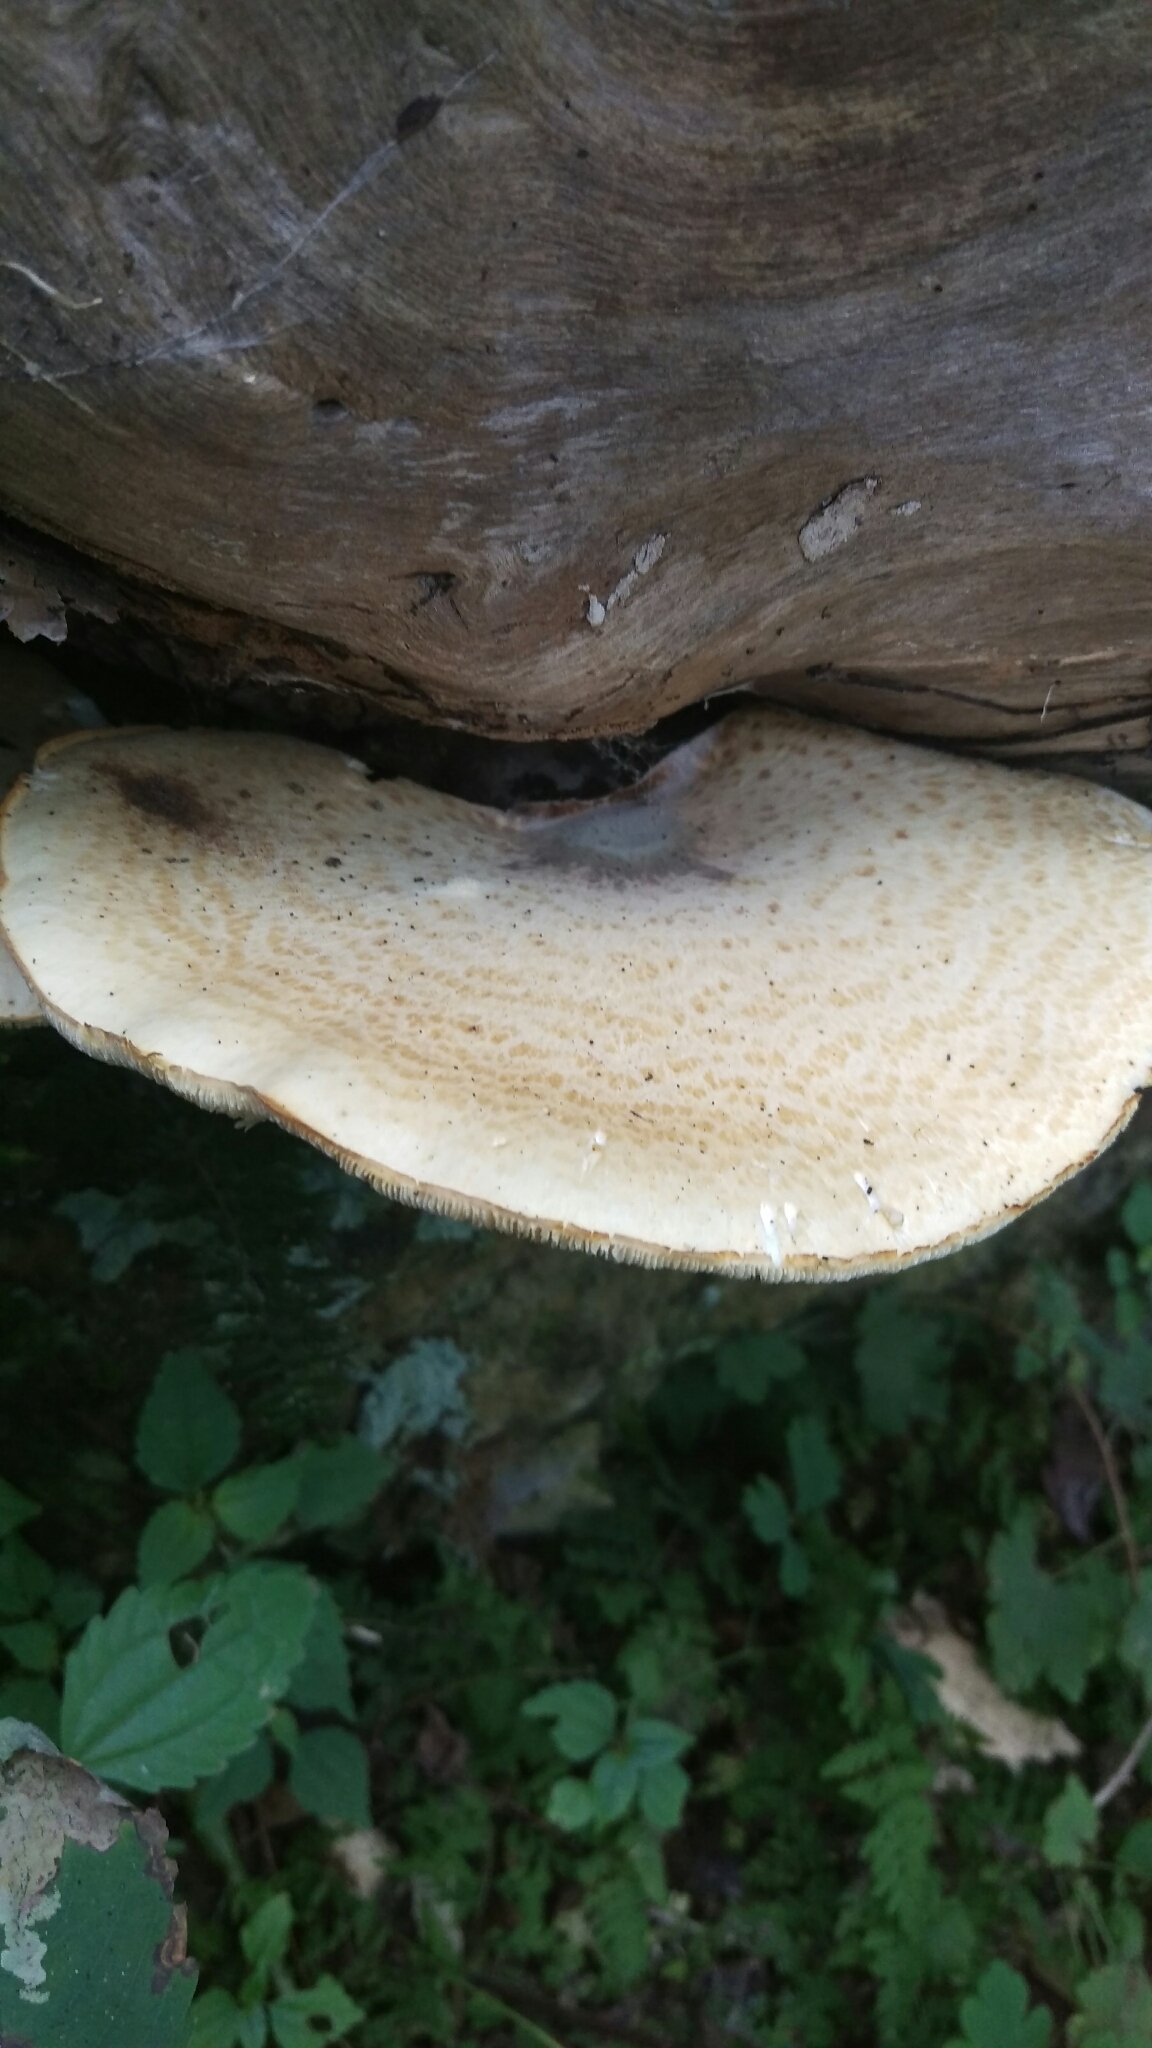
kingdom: Fungi
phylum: Basidiomycota
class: Agaricomycetes
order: Polyporales
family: Polyporaceae
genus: Cerioporus
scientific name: Cerioporus squamosus
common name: Dryad's saddle
